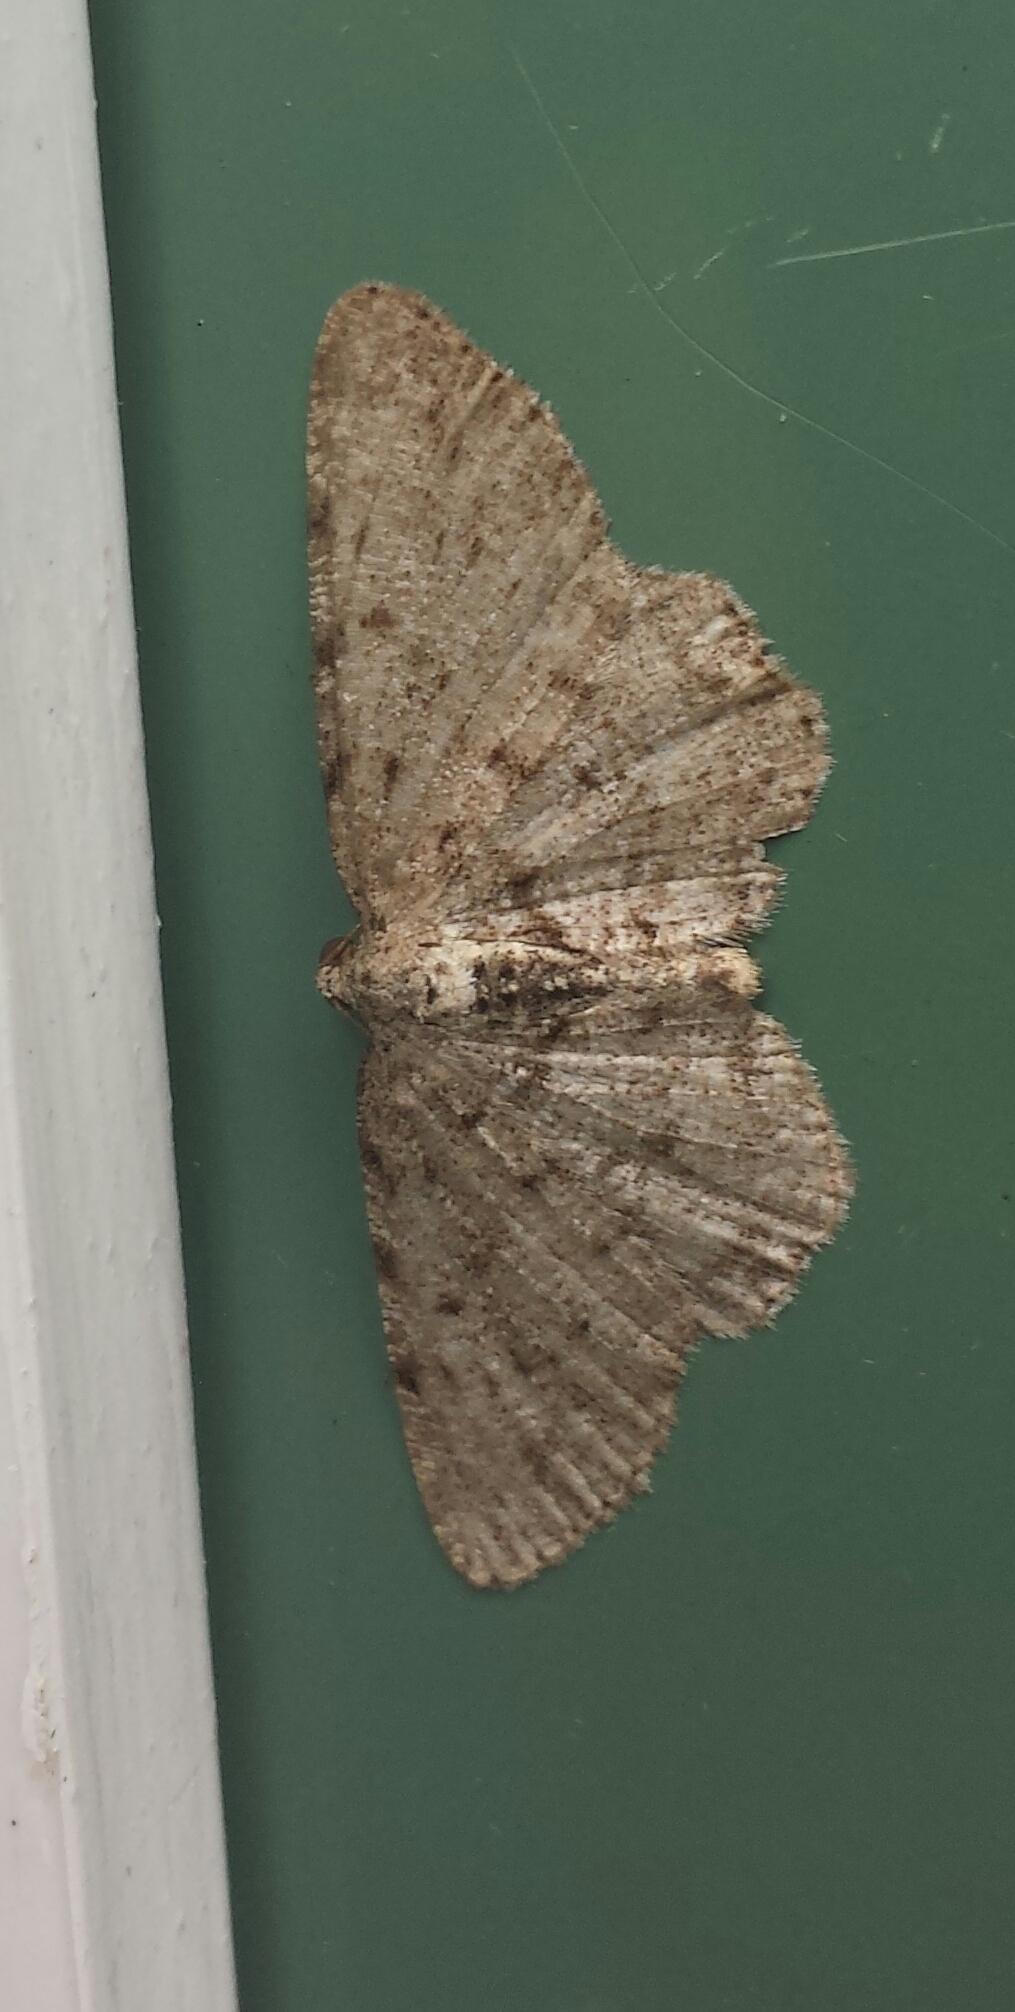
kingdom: Animalia
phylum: Arthropoda
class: Insecta
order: Lepidoptera
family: Geometridae
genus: Aethalura
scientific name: Aethalura intertexta
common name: Four-barred gray
